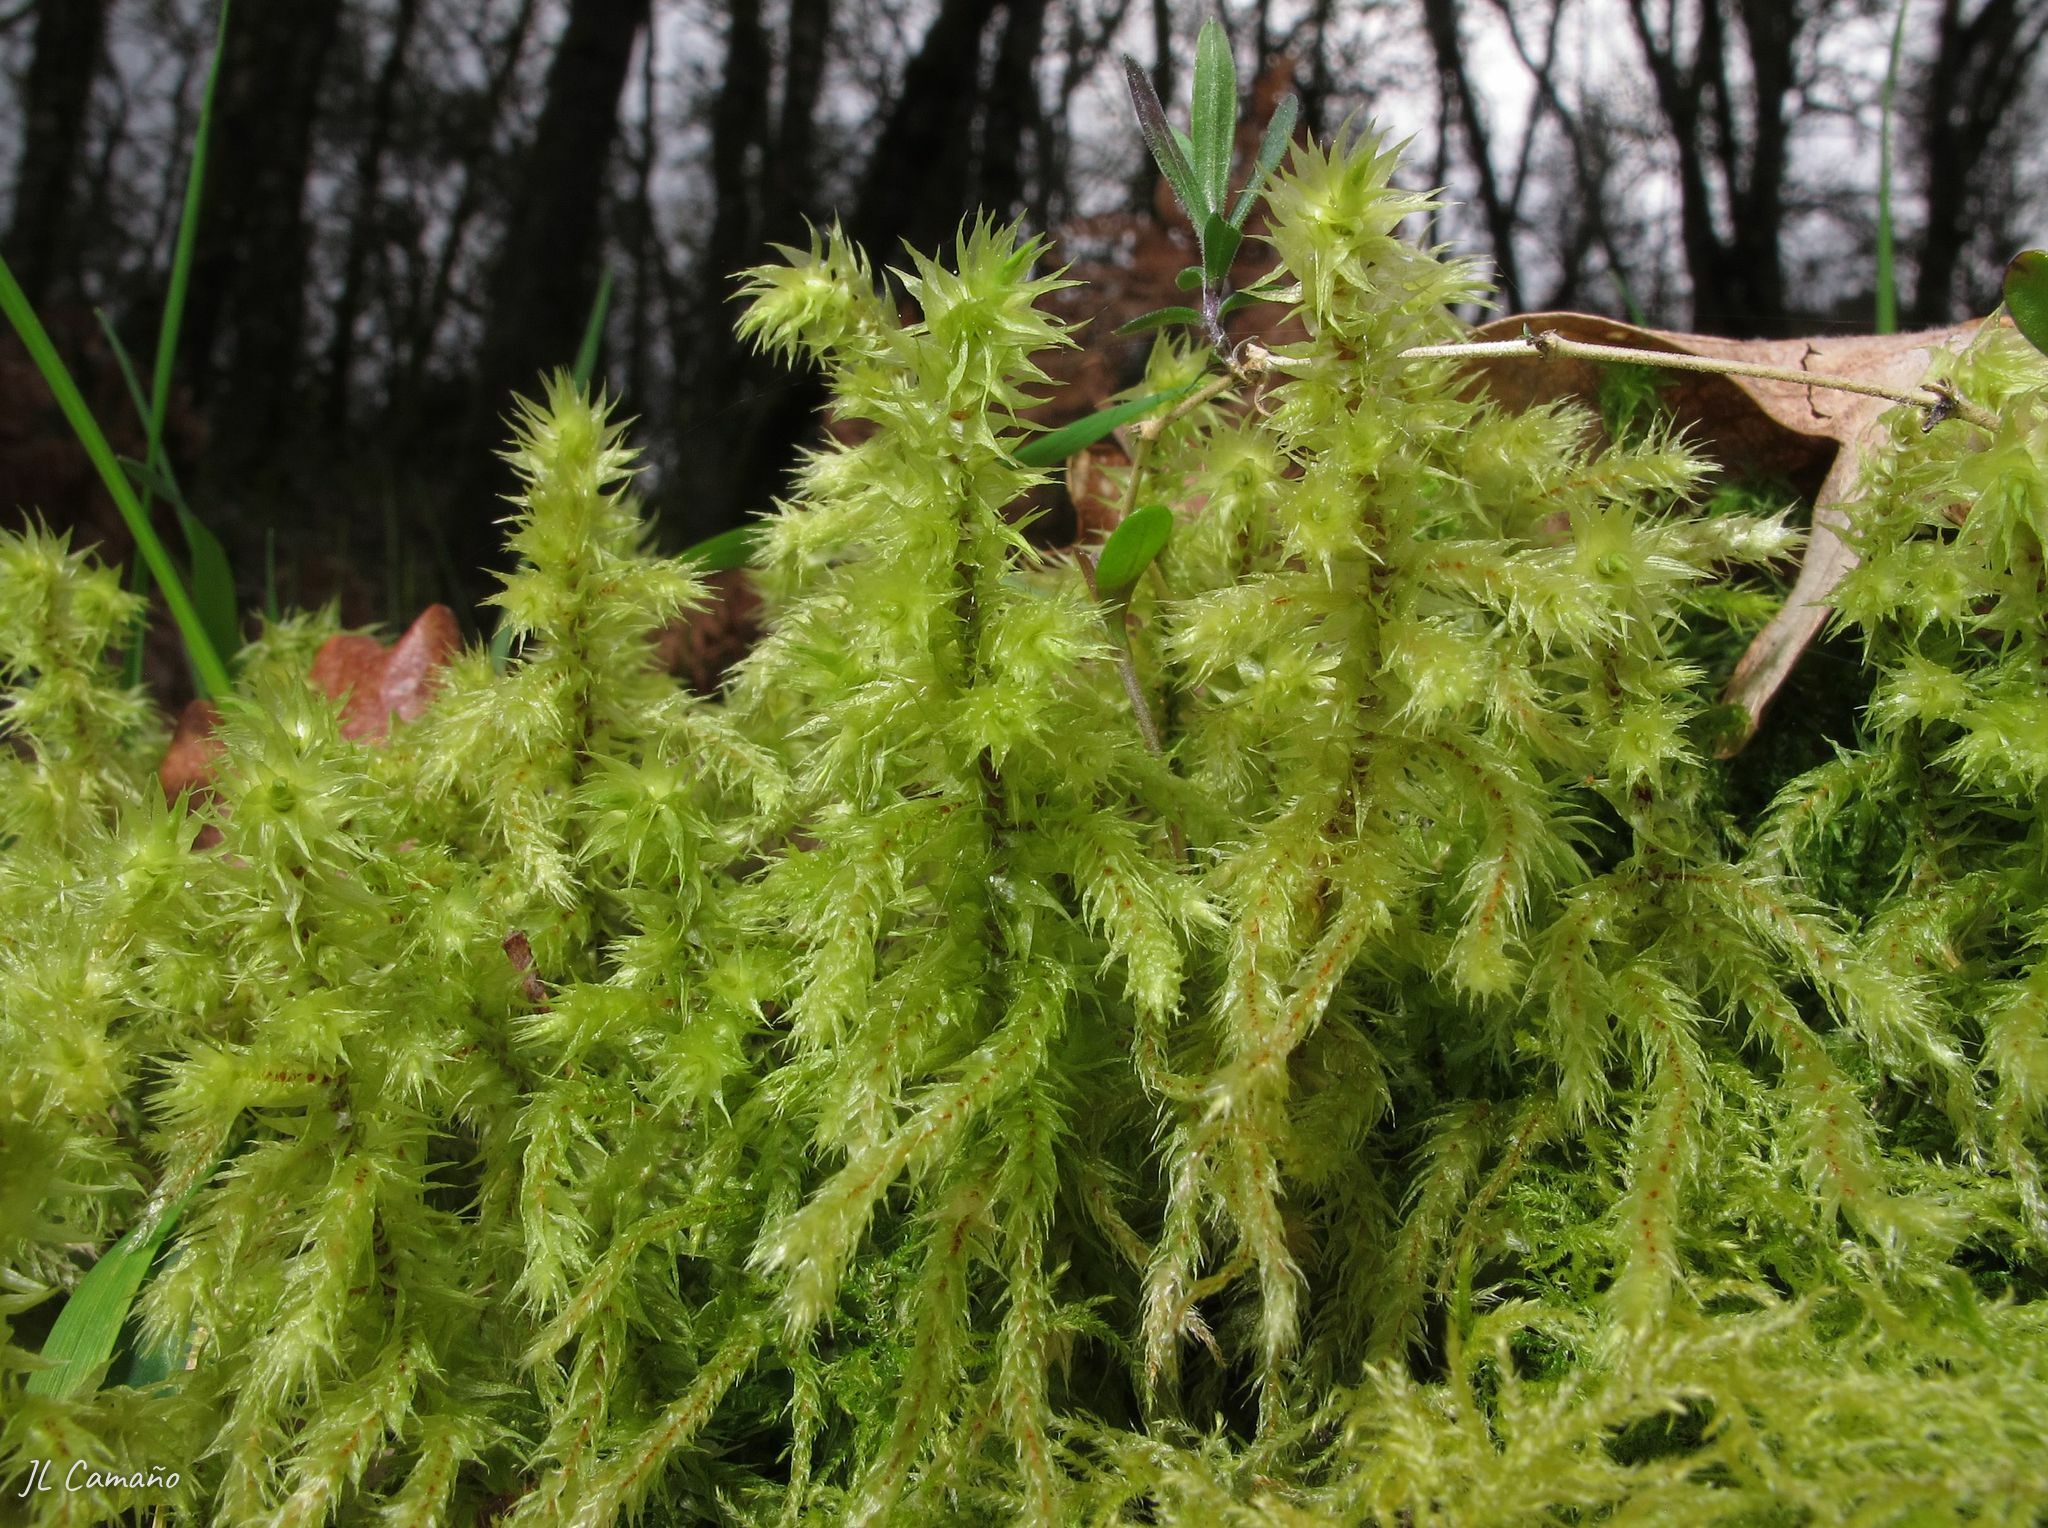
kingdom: Plantae
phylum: Bryophyta
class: Bryopsida
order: Hypnales
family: Hylocomiaceae
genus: Hylocomiadelphus
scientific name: Hylocomiadelphus triquetrus
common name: Rough goose neck moss
